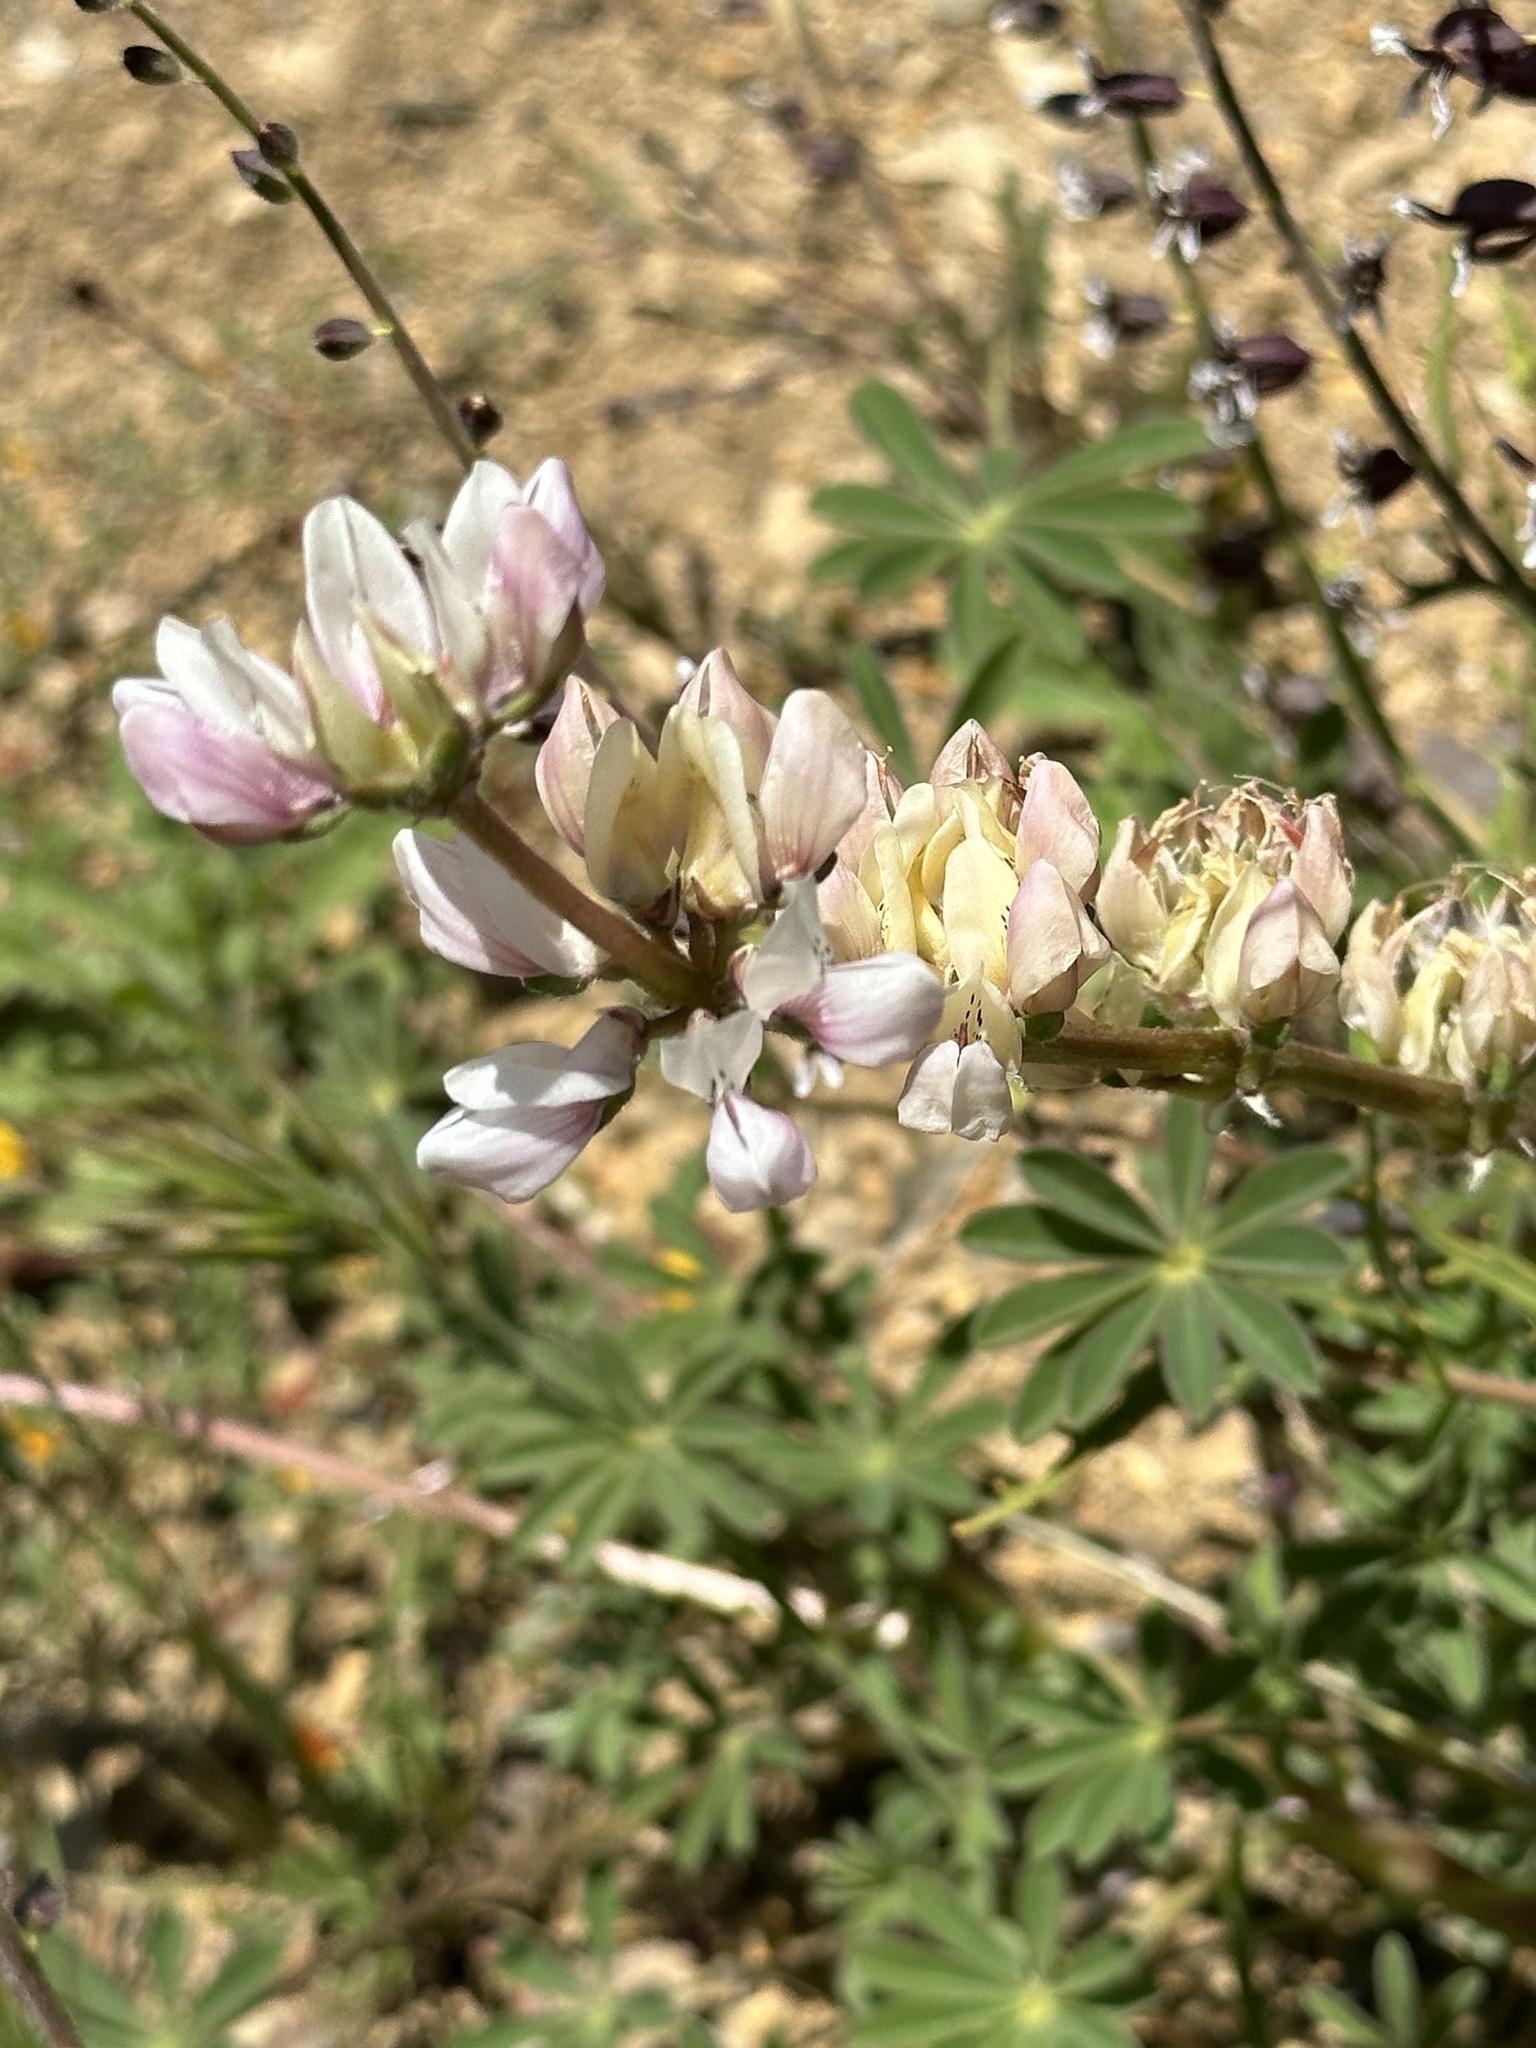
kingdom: Plantae
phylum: Tracheophyta
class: Magnoliopsida
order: Fabales
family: Fabaceae
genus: Lupinus
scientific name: Lupinus microcarpus
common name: Chick lupine
